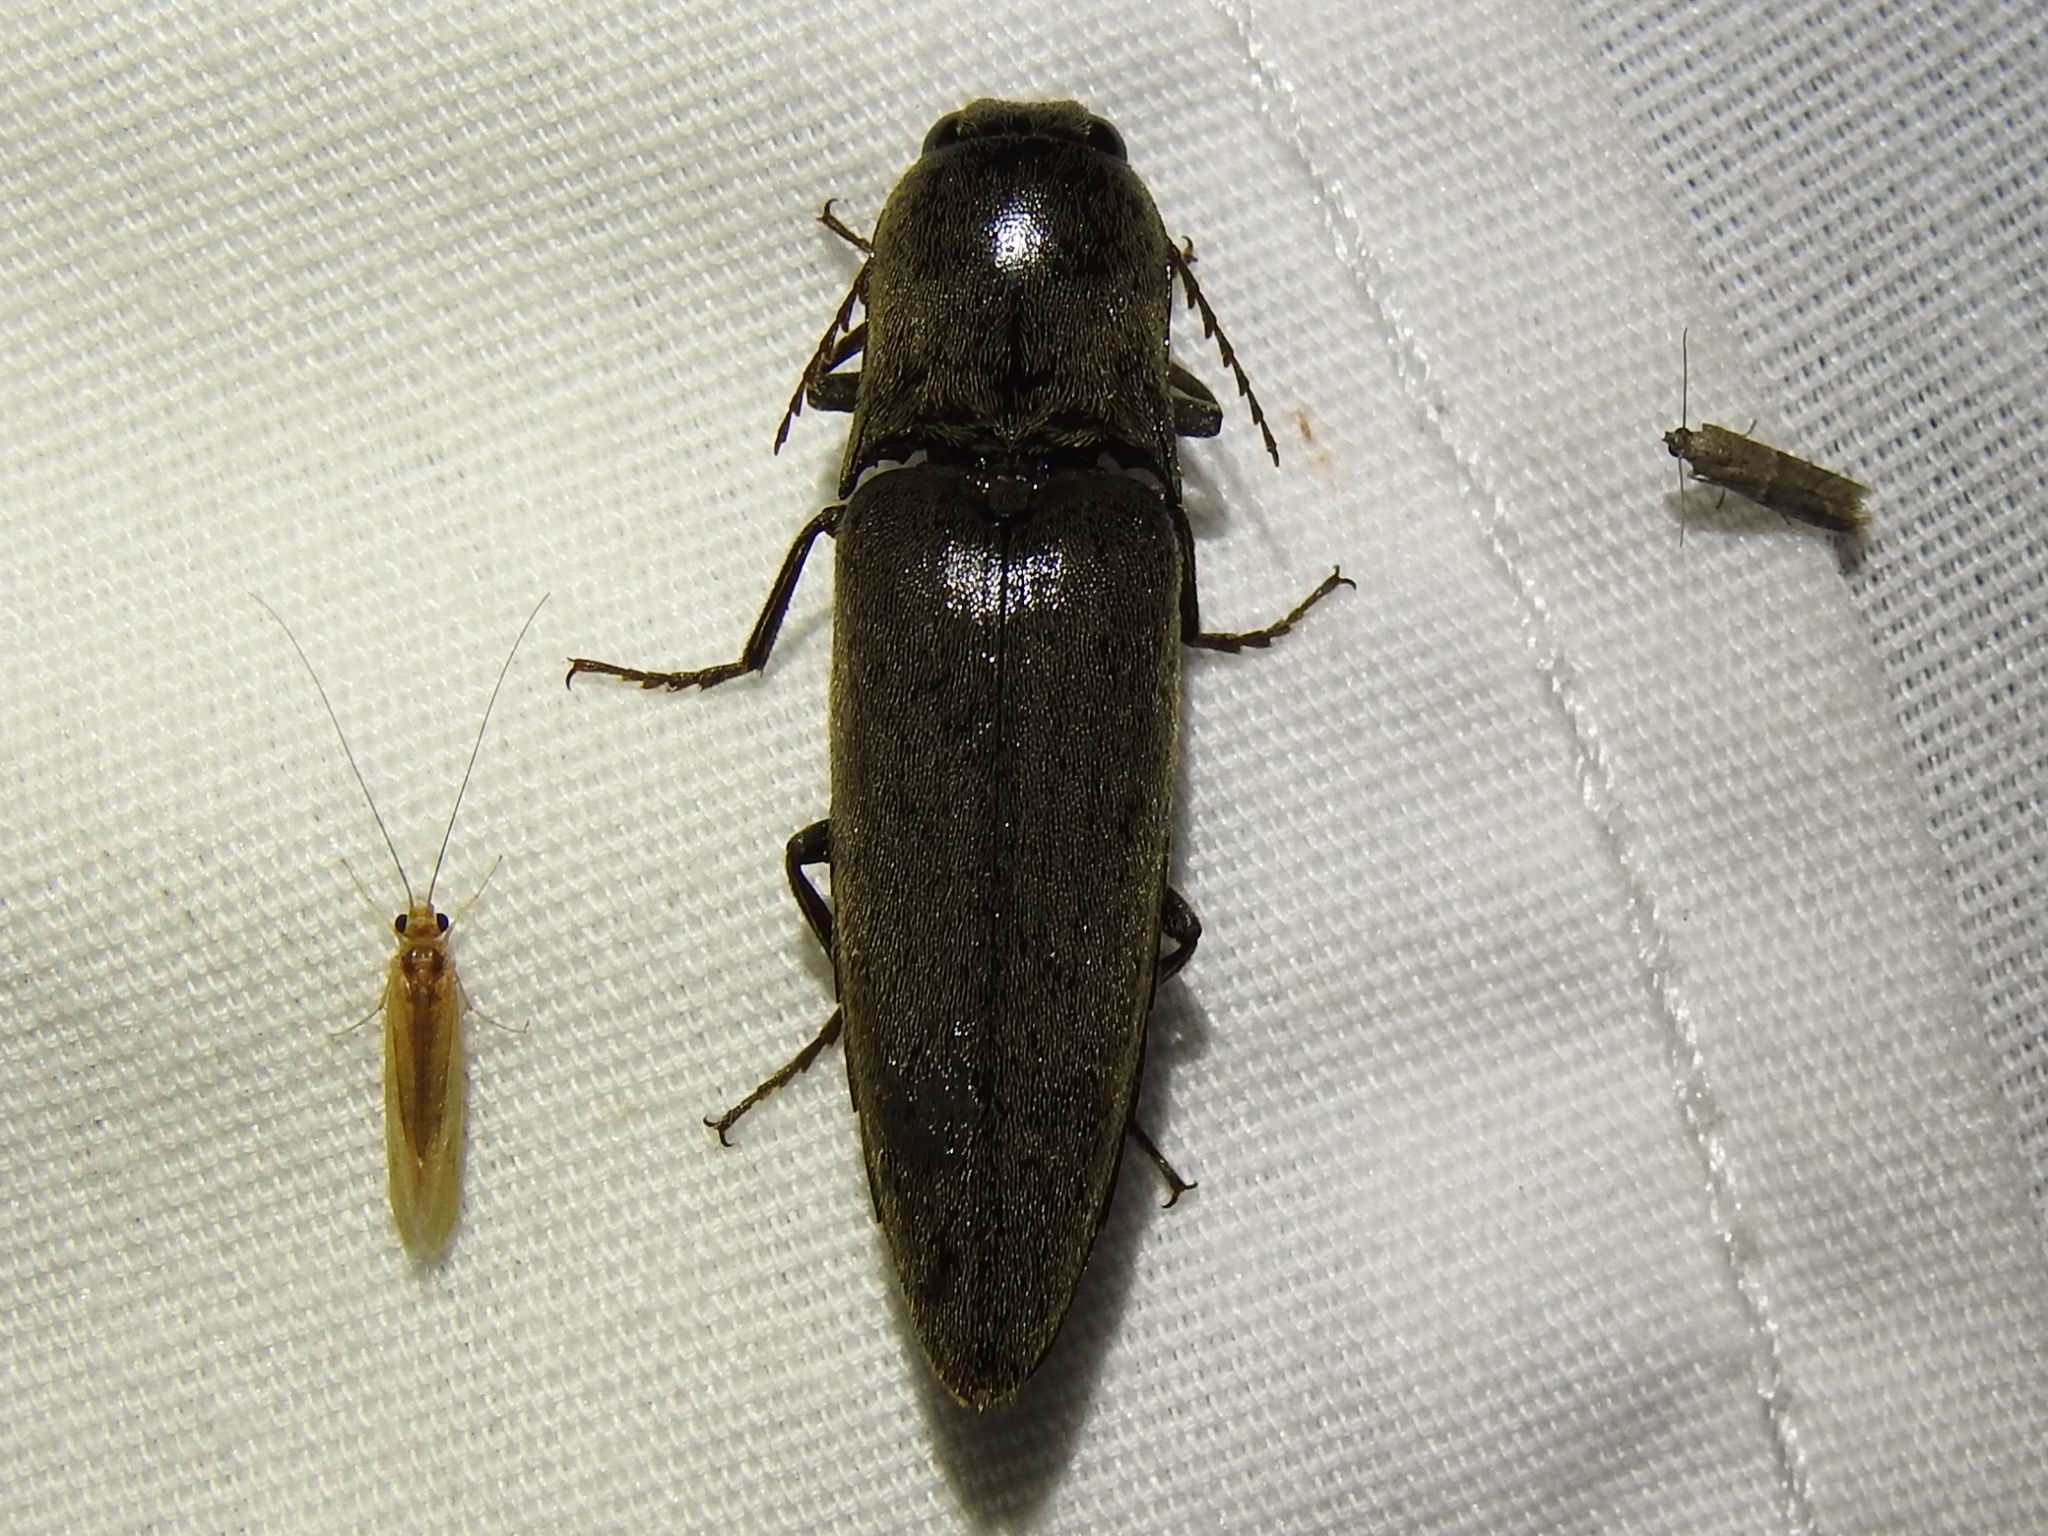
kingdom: Animalia
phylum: Arthropoda
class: Insecta
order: Coleoptera
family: Elateridae
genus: Orthostethus
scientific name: Orthostethus infuscatus
